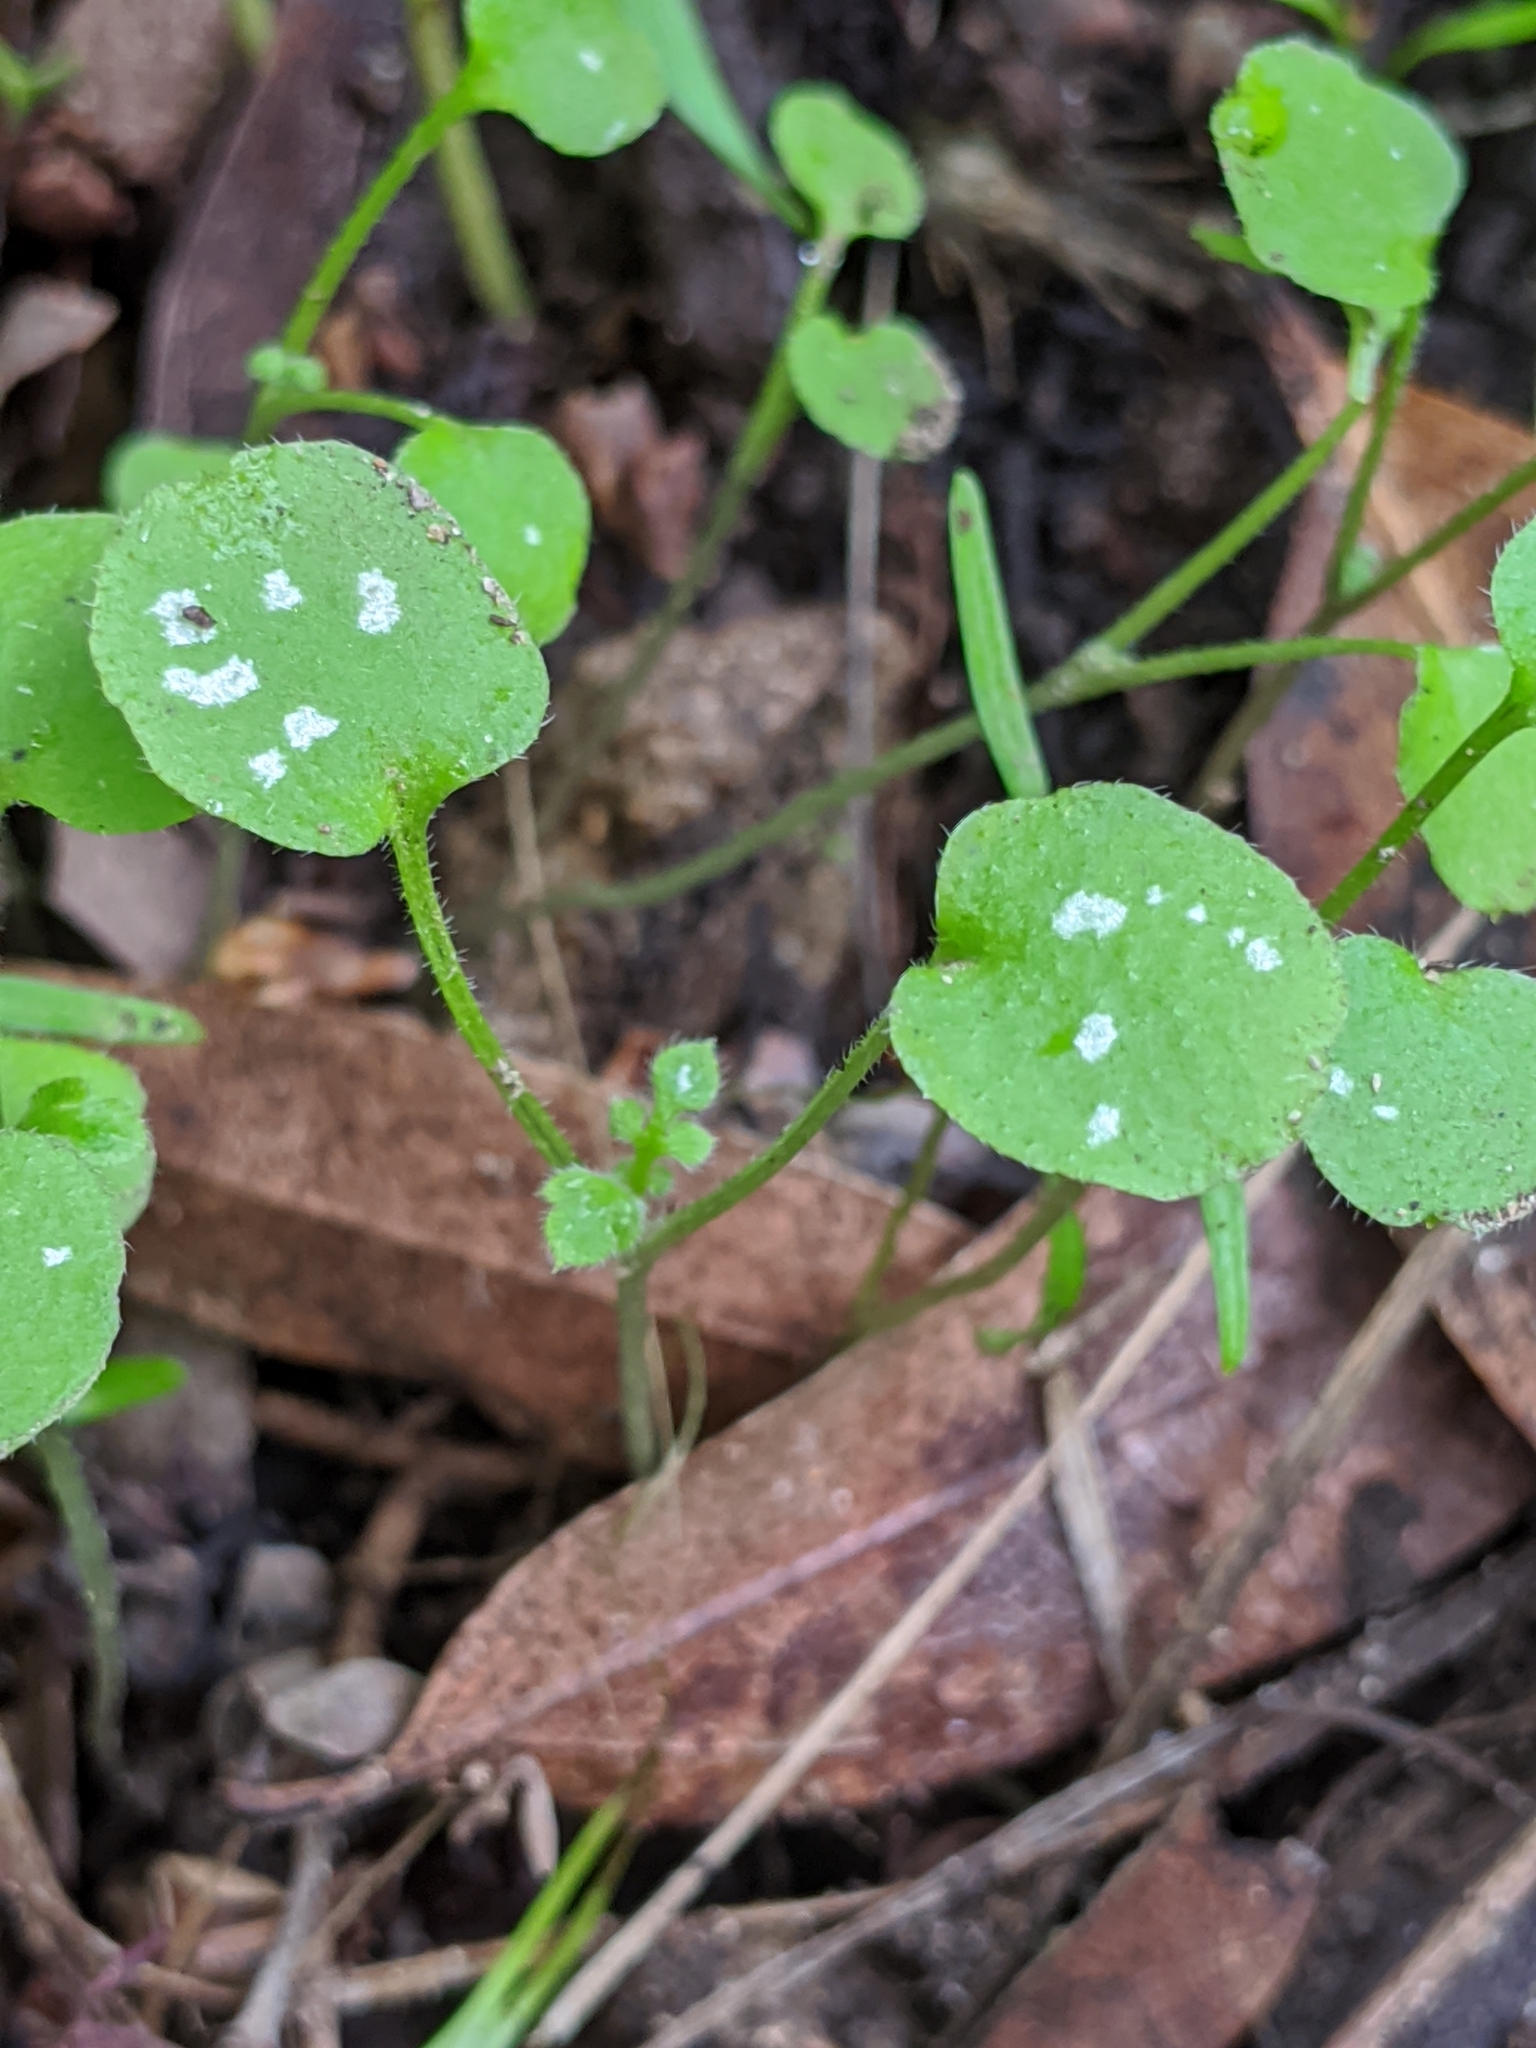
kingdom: Plantae
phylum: Tracheophyta
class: Magnoliopsida
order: Boraginales
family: Hydrophyllaceae
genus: Nemophila
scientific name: Nemophila heterophylla
